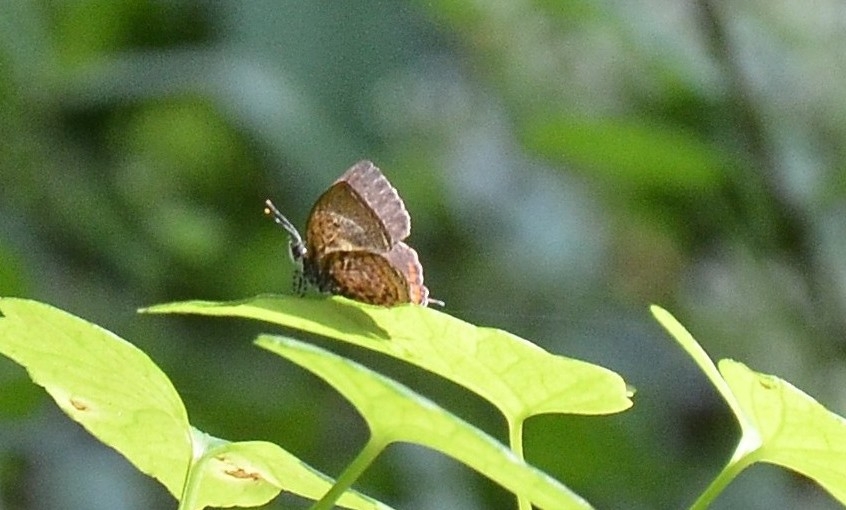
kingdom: Animalia
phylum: Arthropoda
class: Insecta
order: Lepidoptera
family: Lycaenidae
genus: Rathinda
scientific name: Rathinda amor
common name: Monkey puzzle
